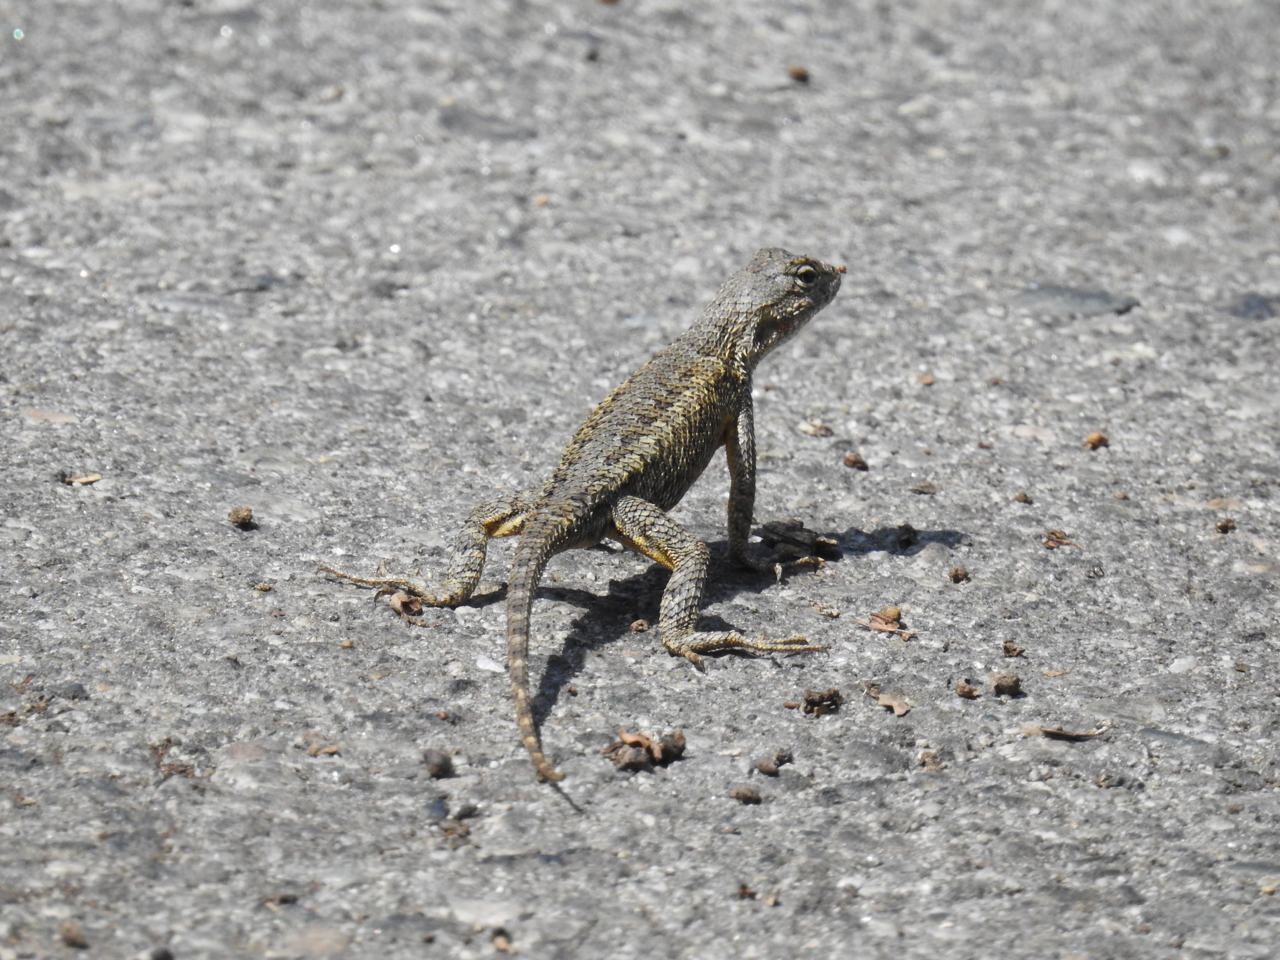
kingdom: Animalia
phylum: Chordata
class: Squamata
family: Phrynosomatidae
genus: Sceloporus
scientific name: Sceloporus occidentalis
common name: Western fence lizard
